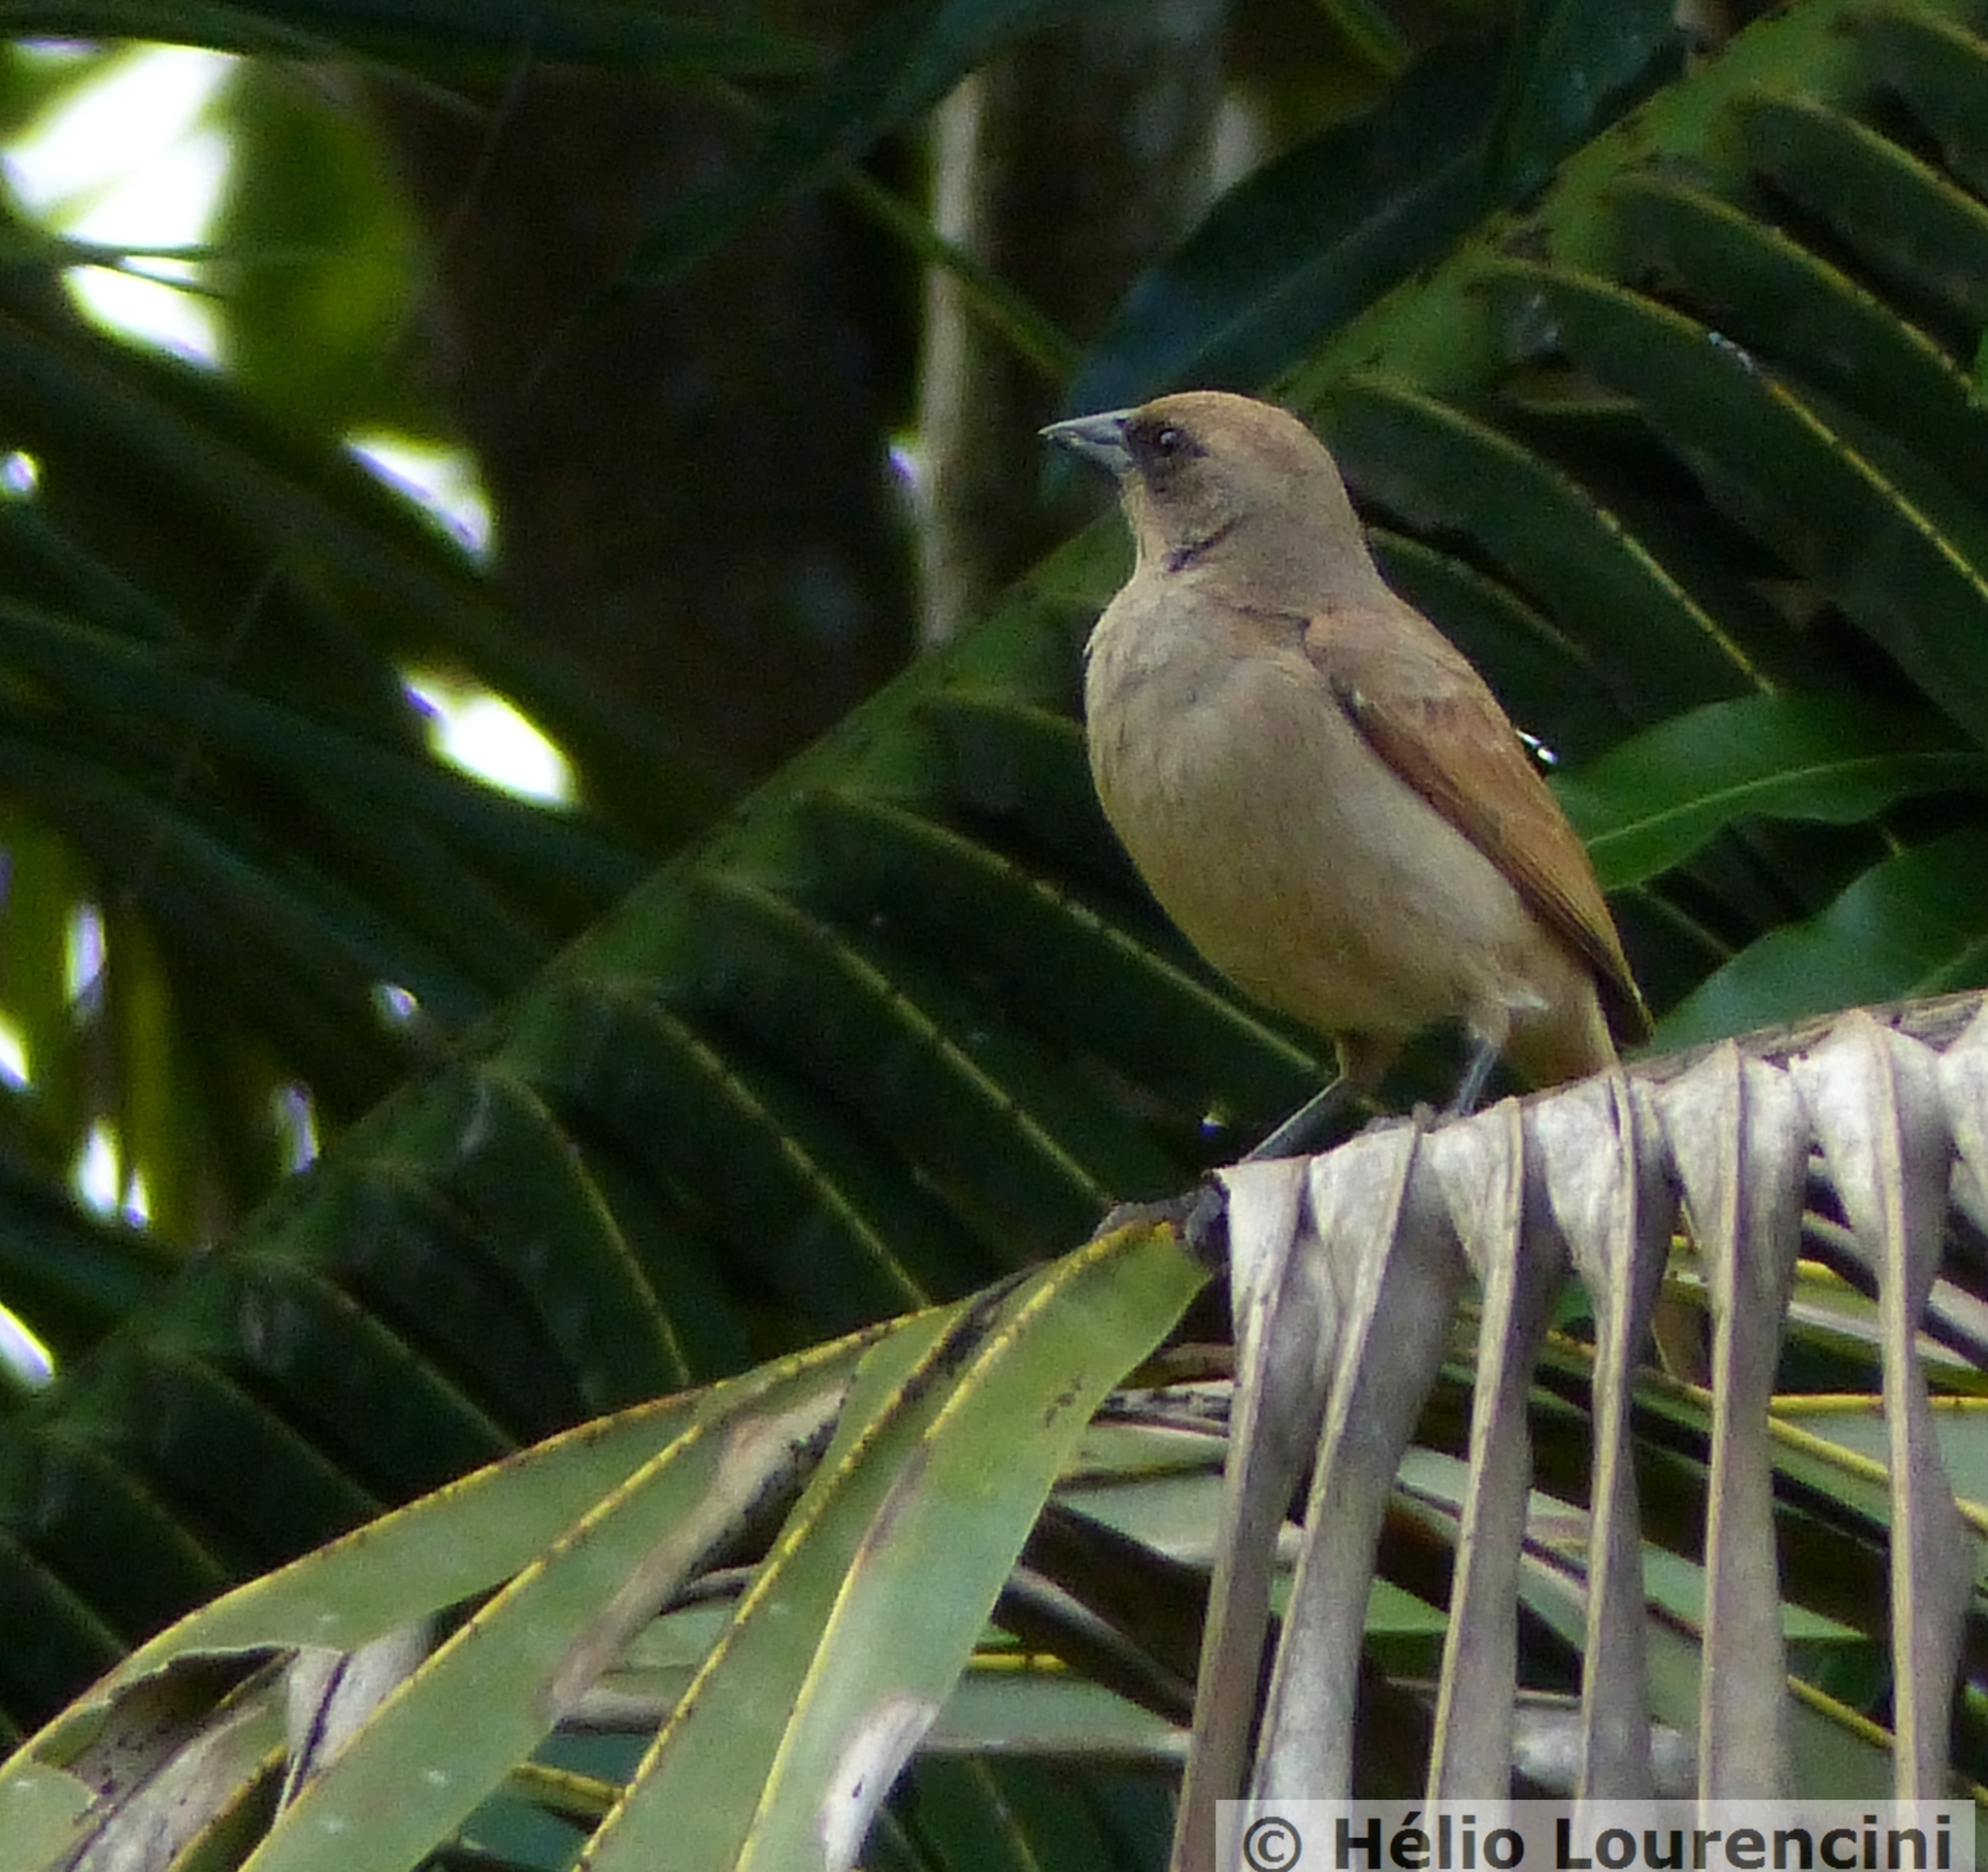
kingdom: Animalia
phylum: Chordata
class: Aves
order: Passeriformes
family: Icteridae
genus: Agelaioides
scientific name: Agelaioides badius
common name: Baywing
